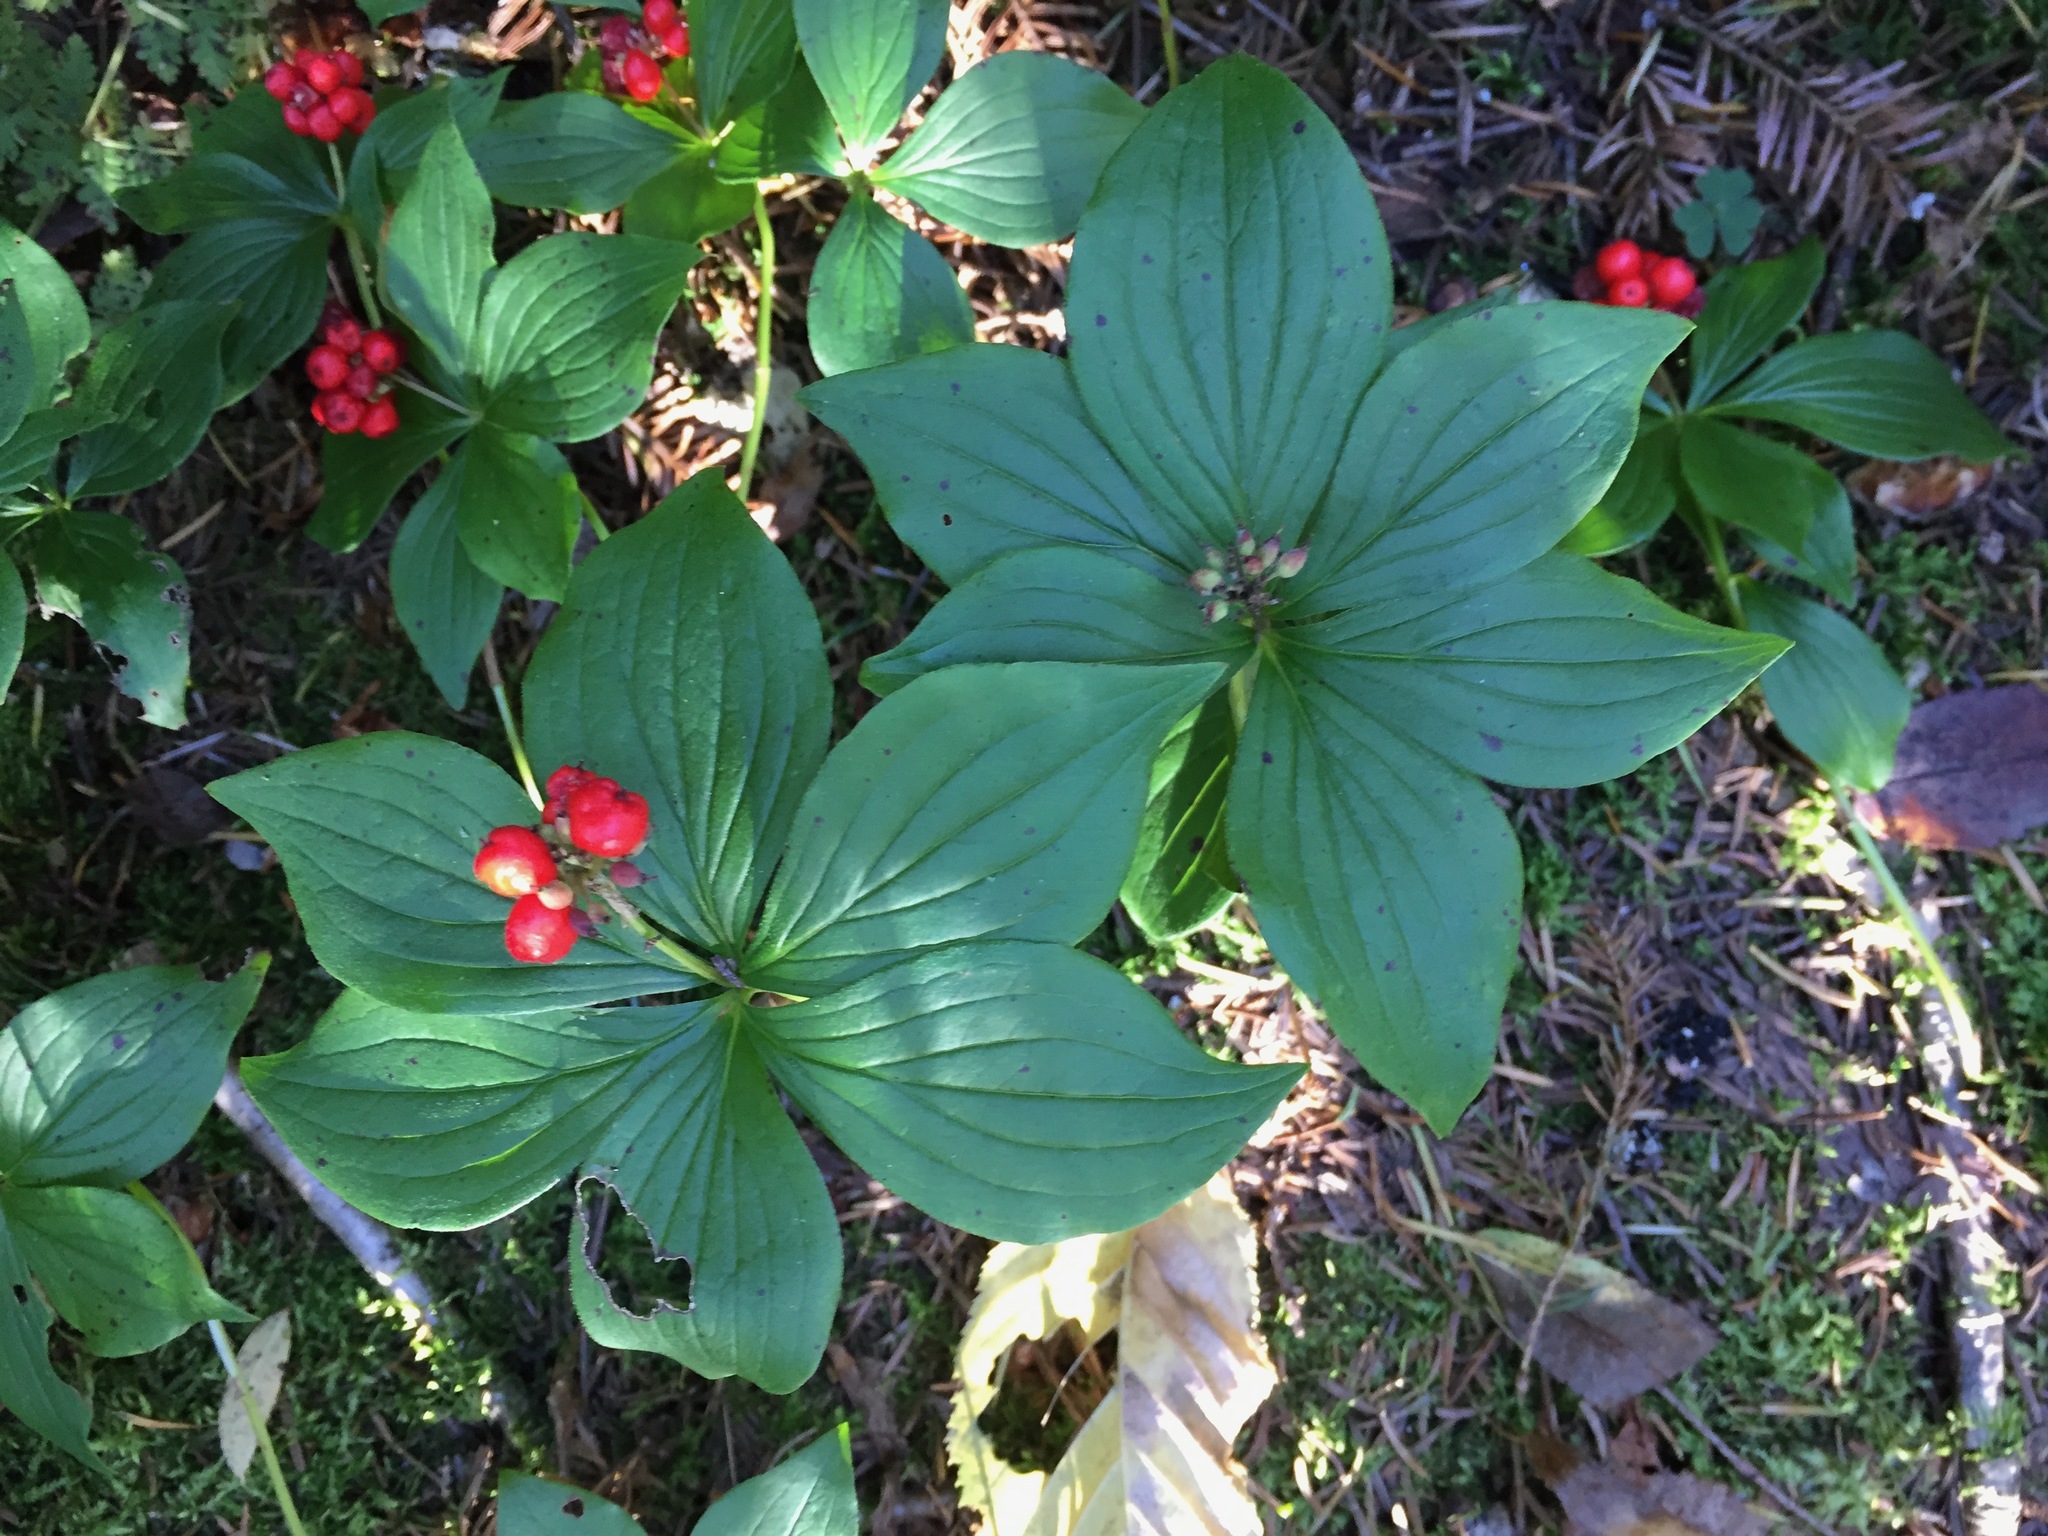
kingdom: Plantae
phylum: Tracheophyta
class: Magnoliopsida
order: Cornales
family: Cornaceae
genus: Cornus
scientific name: Cornus canadensis
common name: Creeping dogwood
